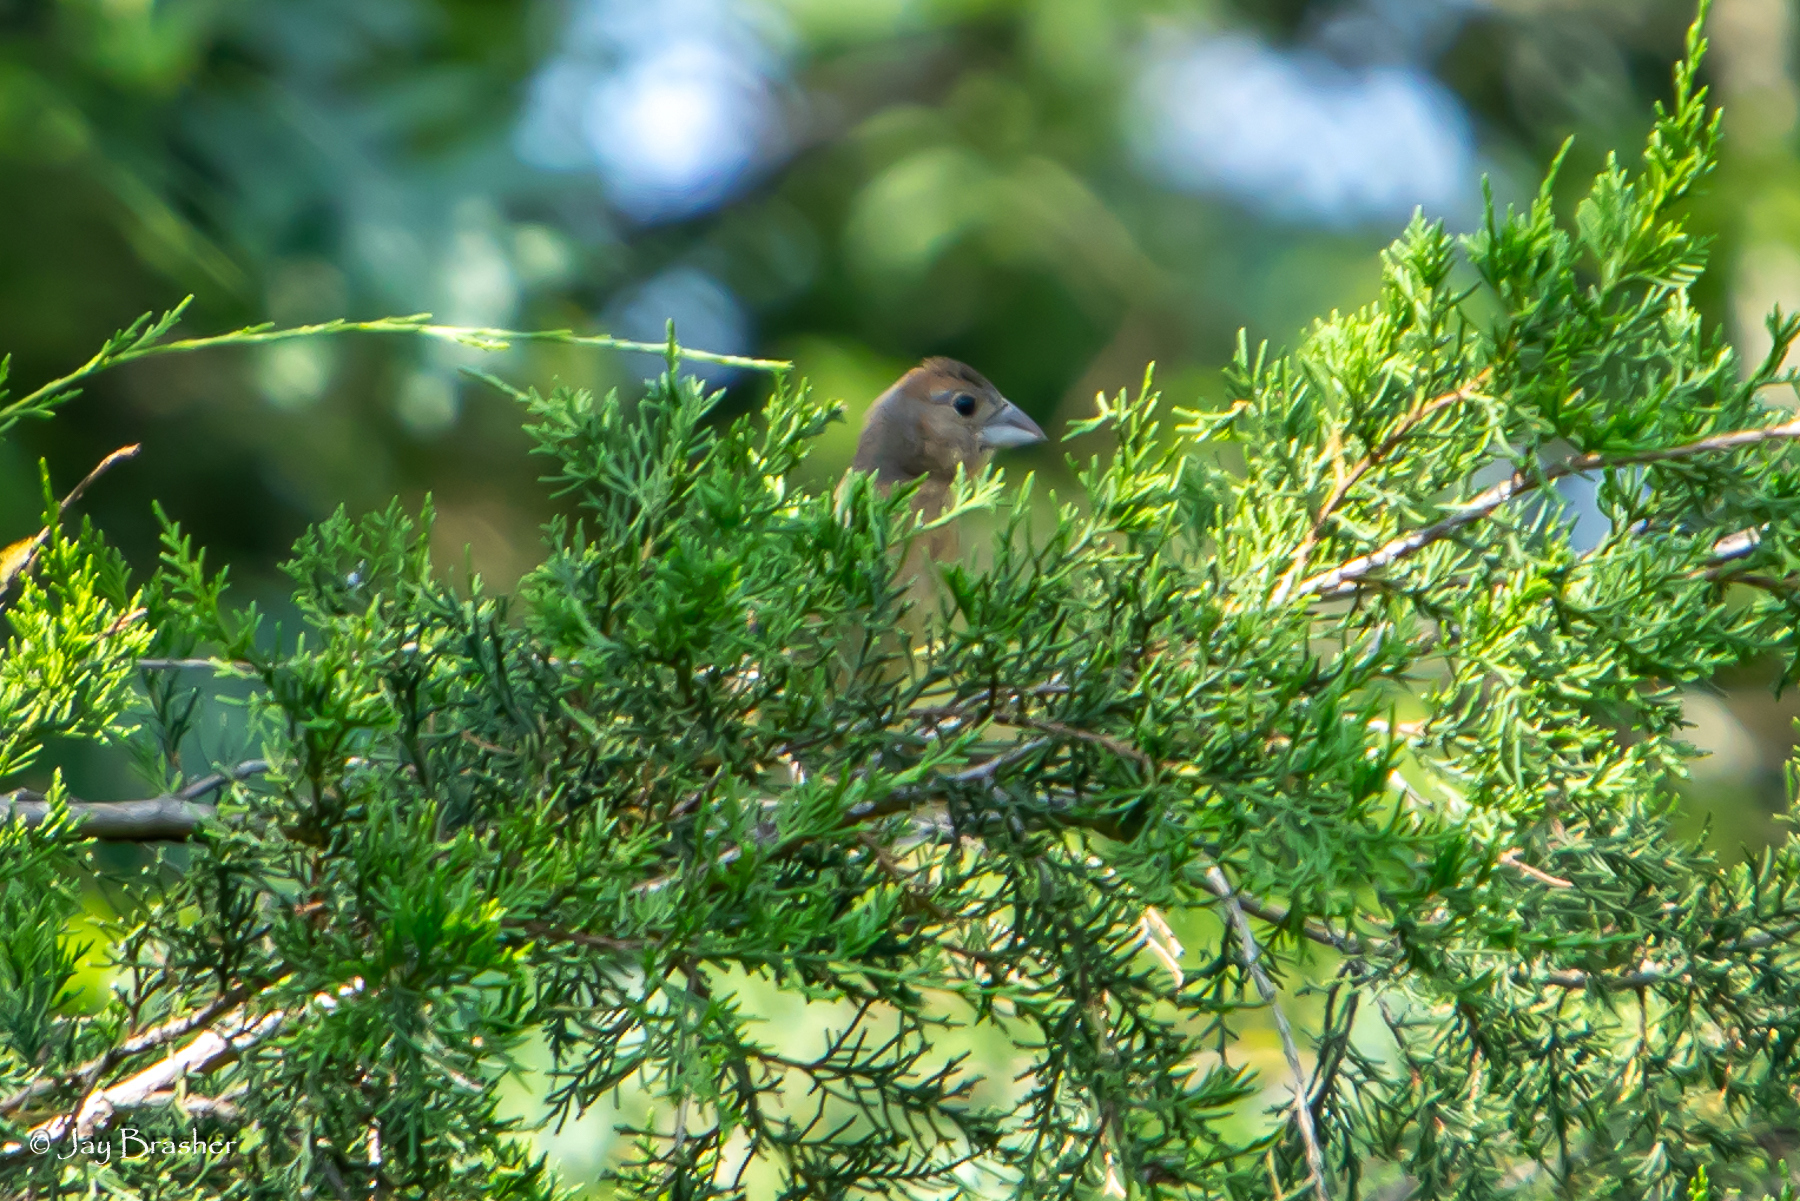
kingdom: Animalia
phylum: Chordata
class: Aves
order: Passeriformes
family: Cardinalidae
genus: Passerina
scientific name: Passerina caerulea
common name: Blue grosbeak
